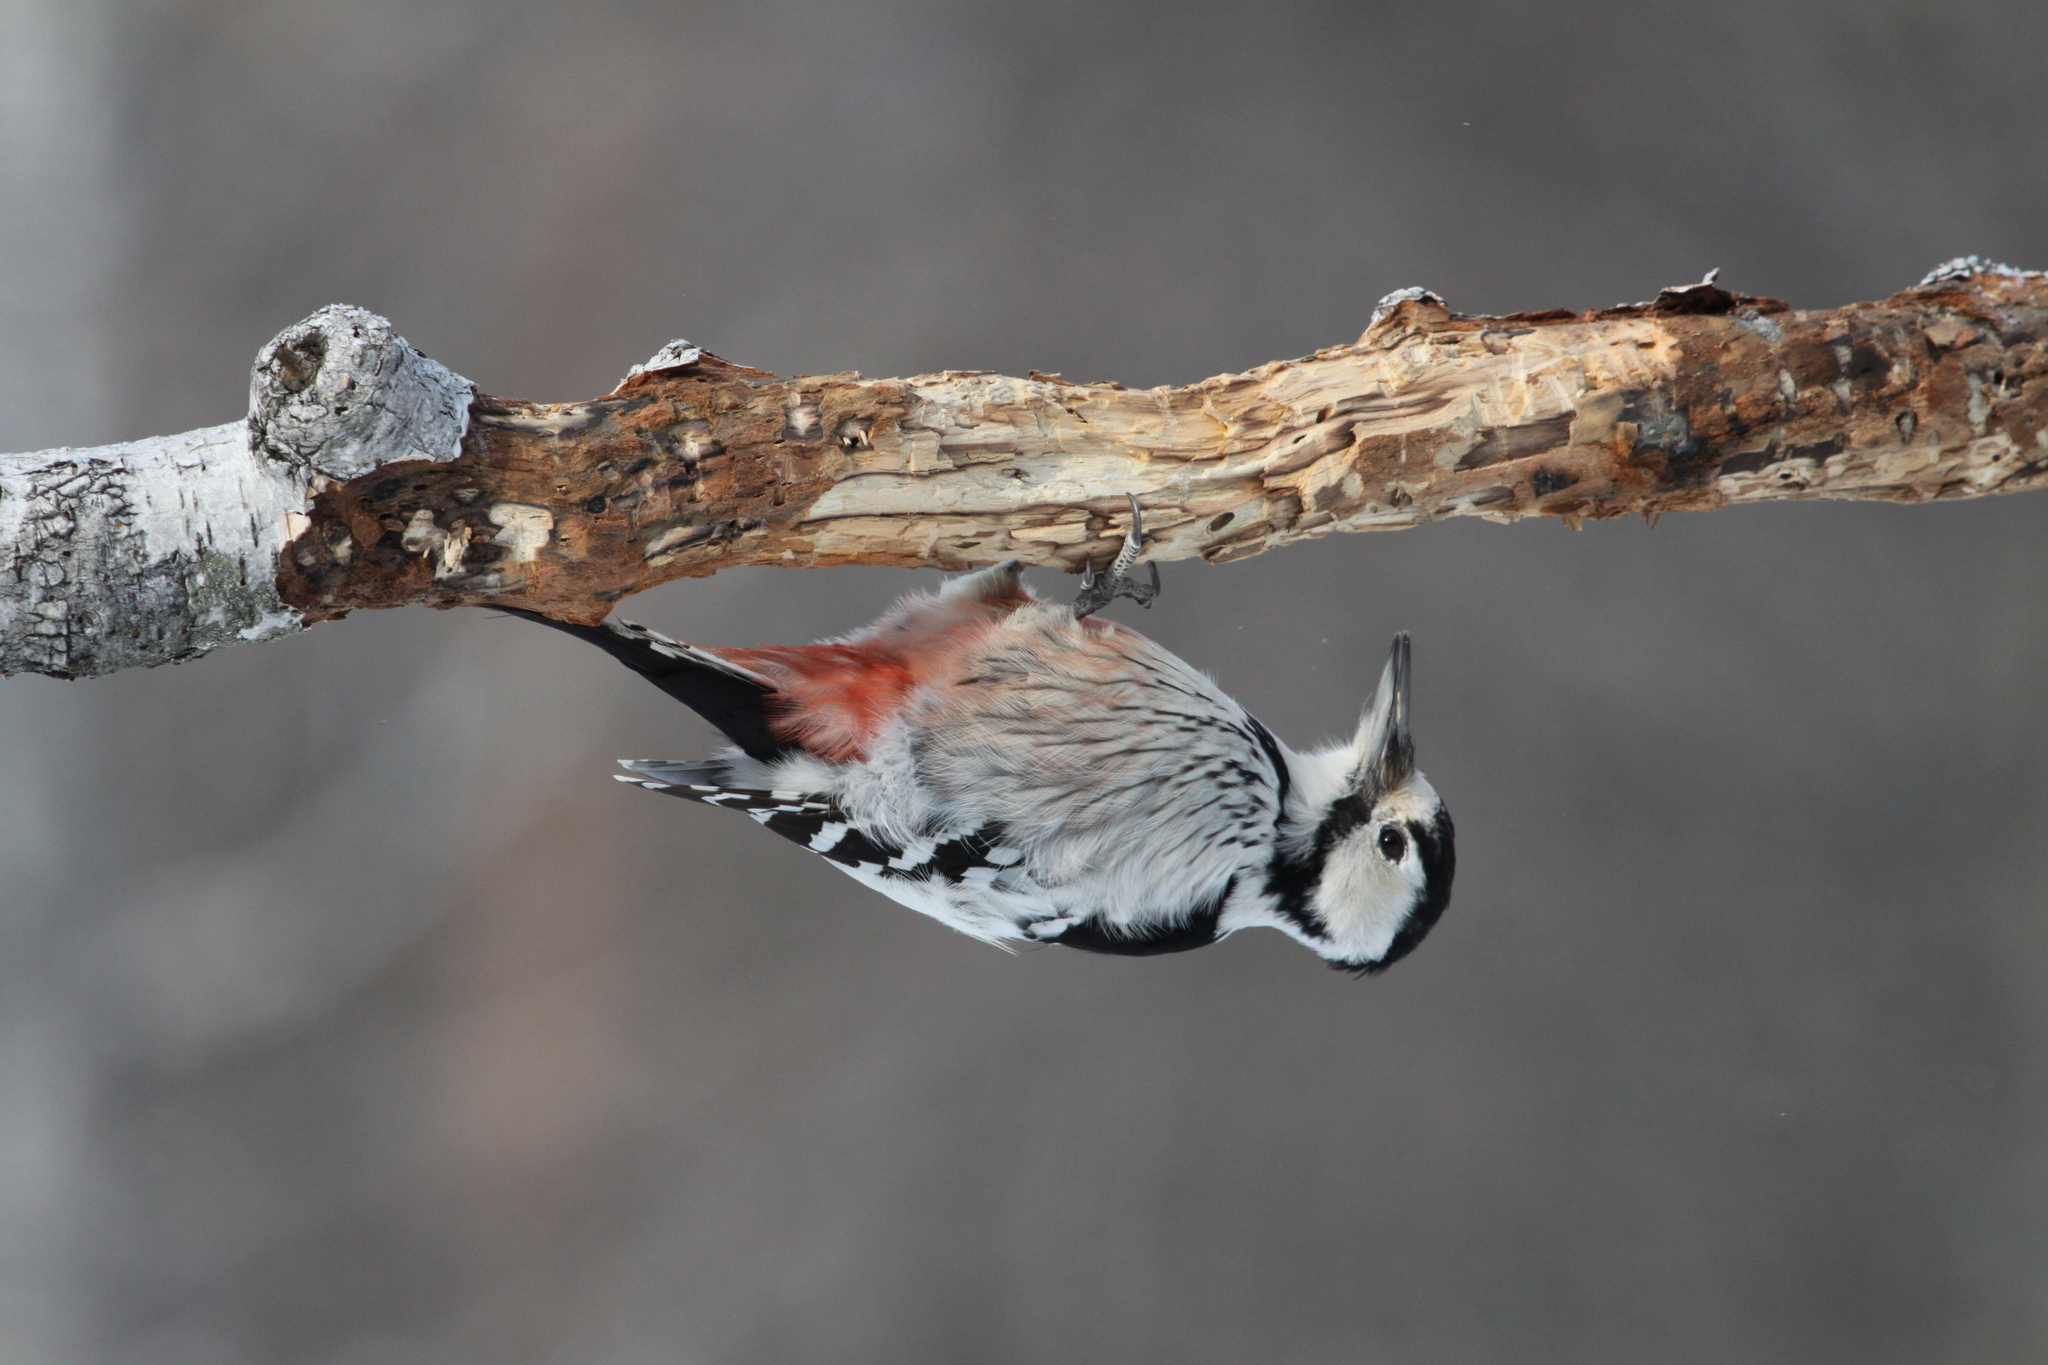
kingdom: Animalia
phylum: Chordata
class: Aves
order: Piciformes
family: Picidae
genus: Dendrocopos
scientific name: Dendrocopos leucotos
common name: White-backed woodpecker
